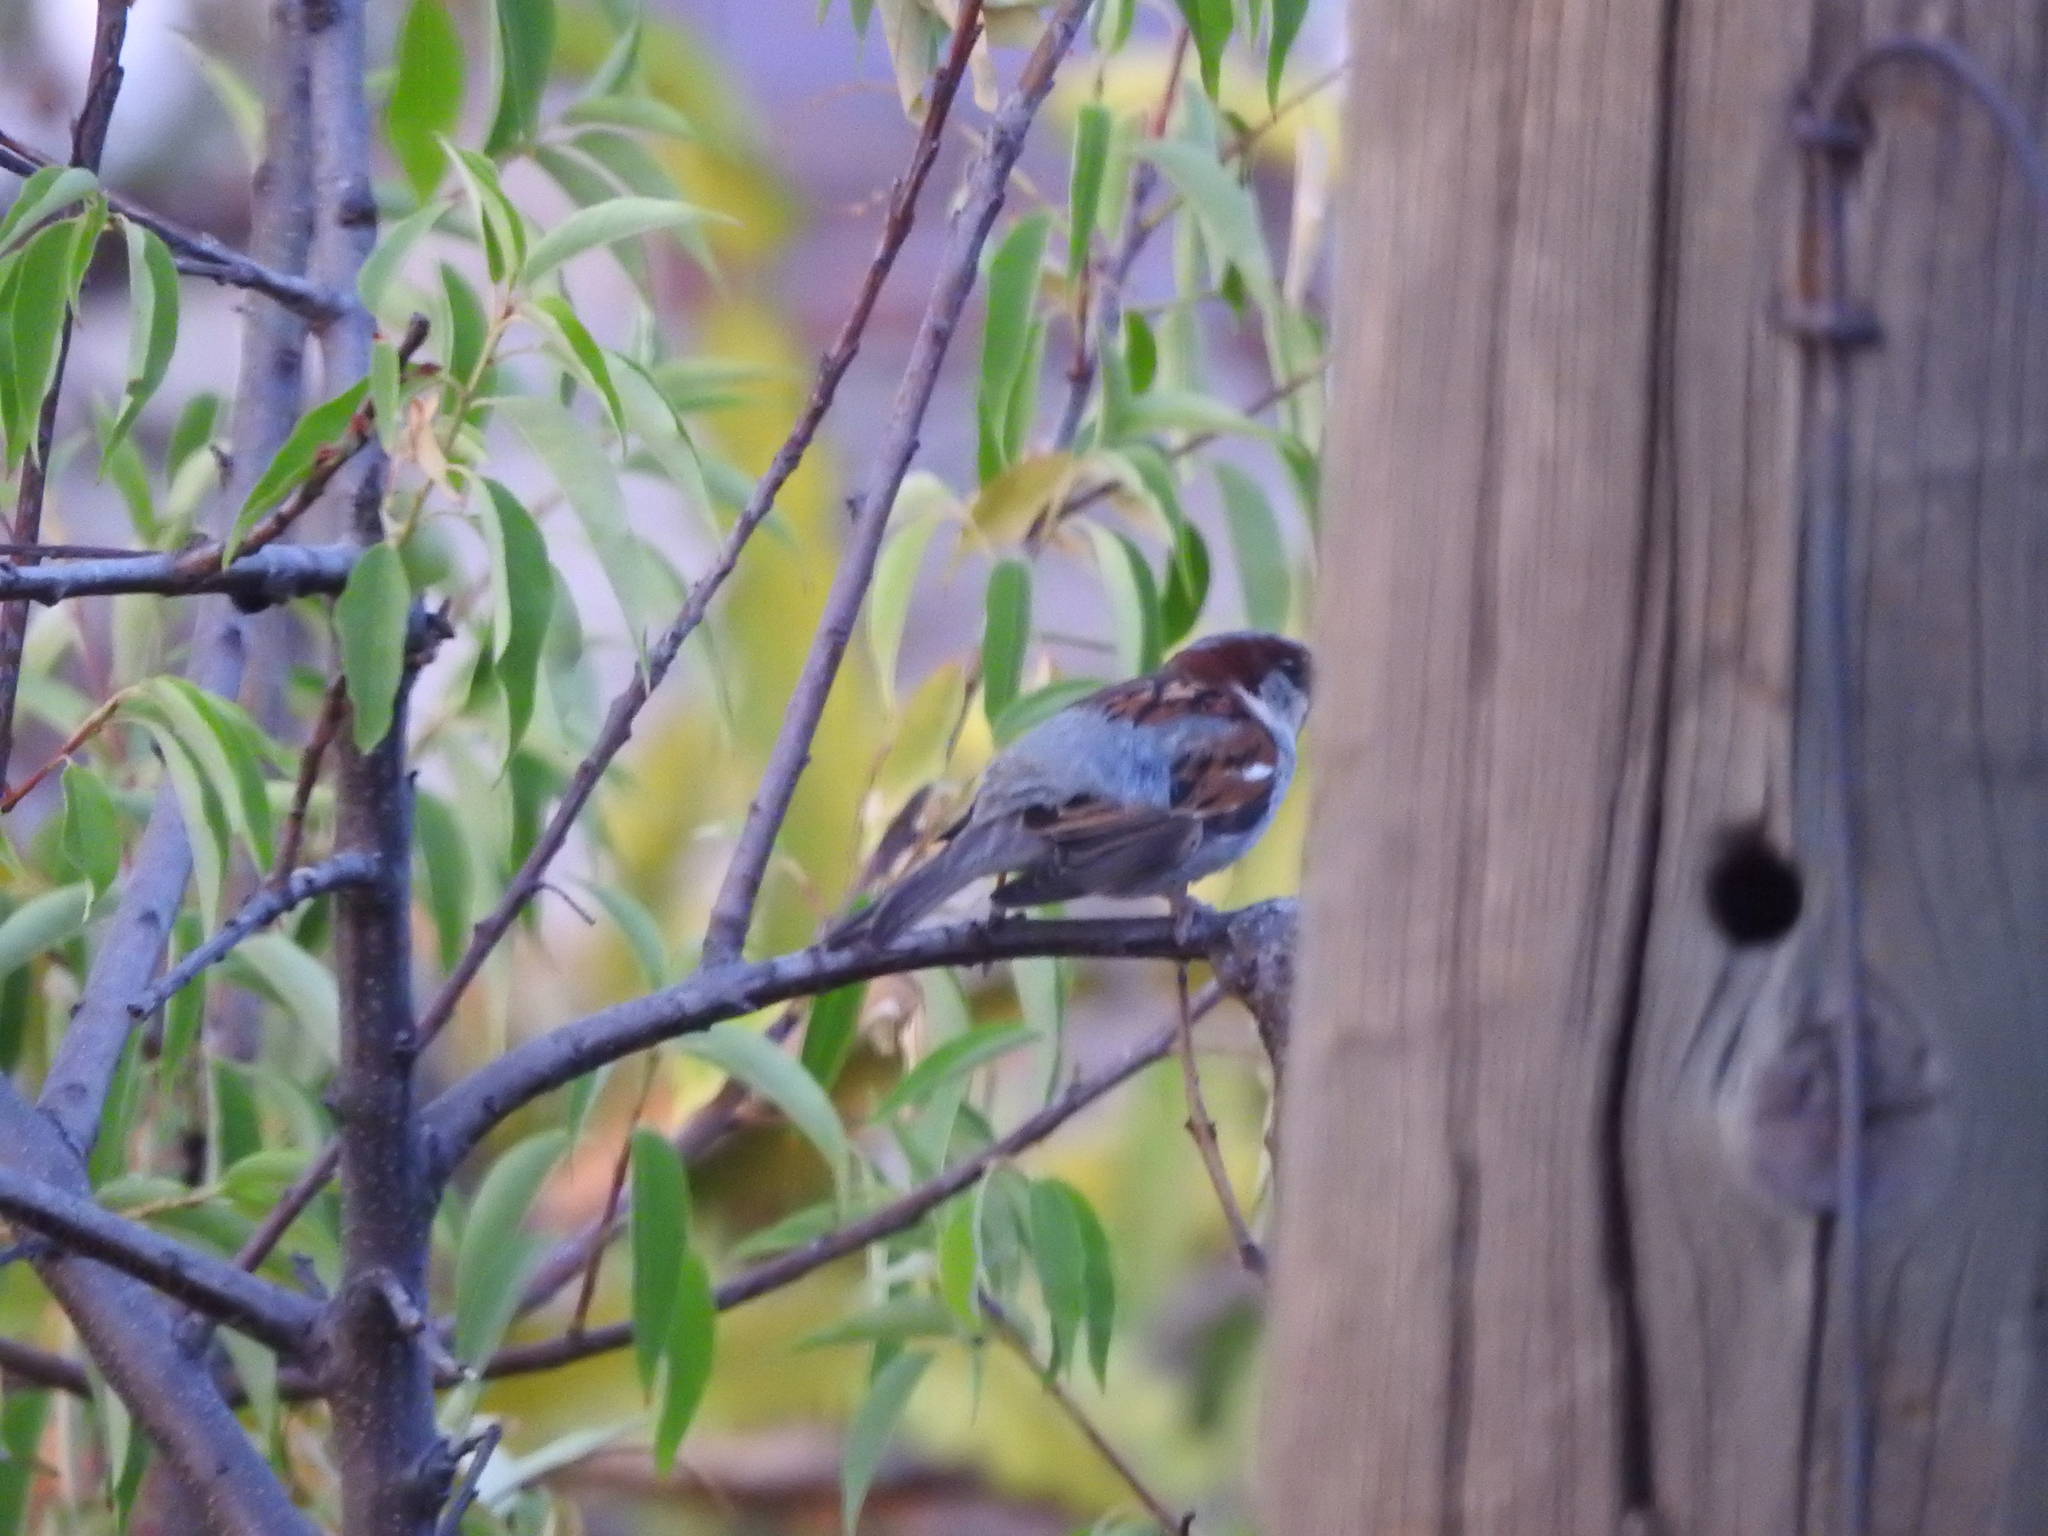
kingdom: Animalia
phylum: Chordata
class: Aves
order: Passeriformes
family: Passeridae
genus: Passer
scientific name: Passer domesticus
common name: House sparrow
